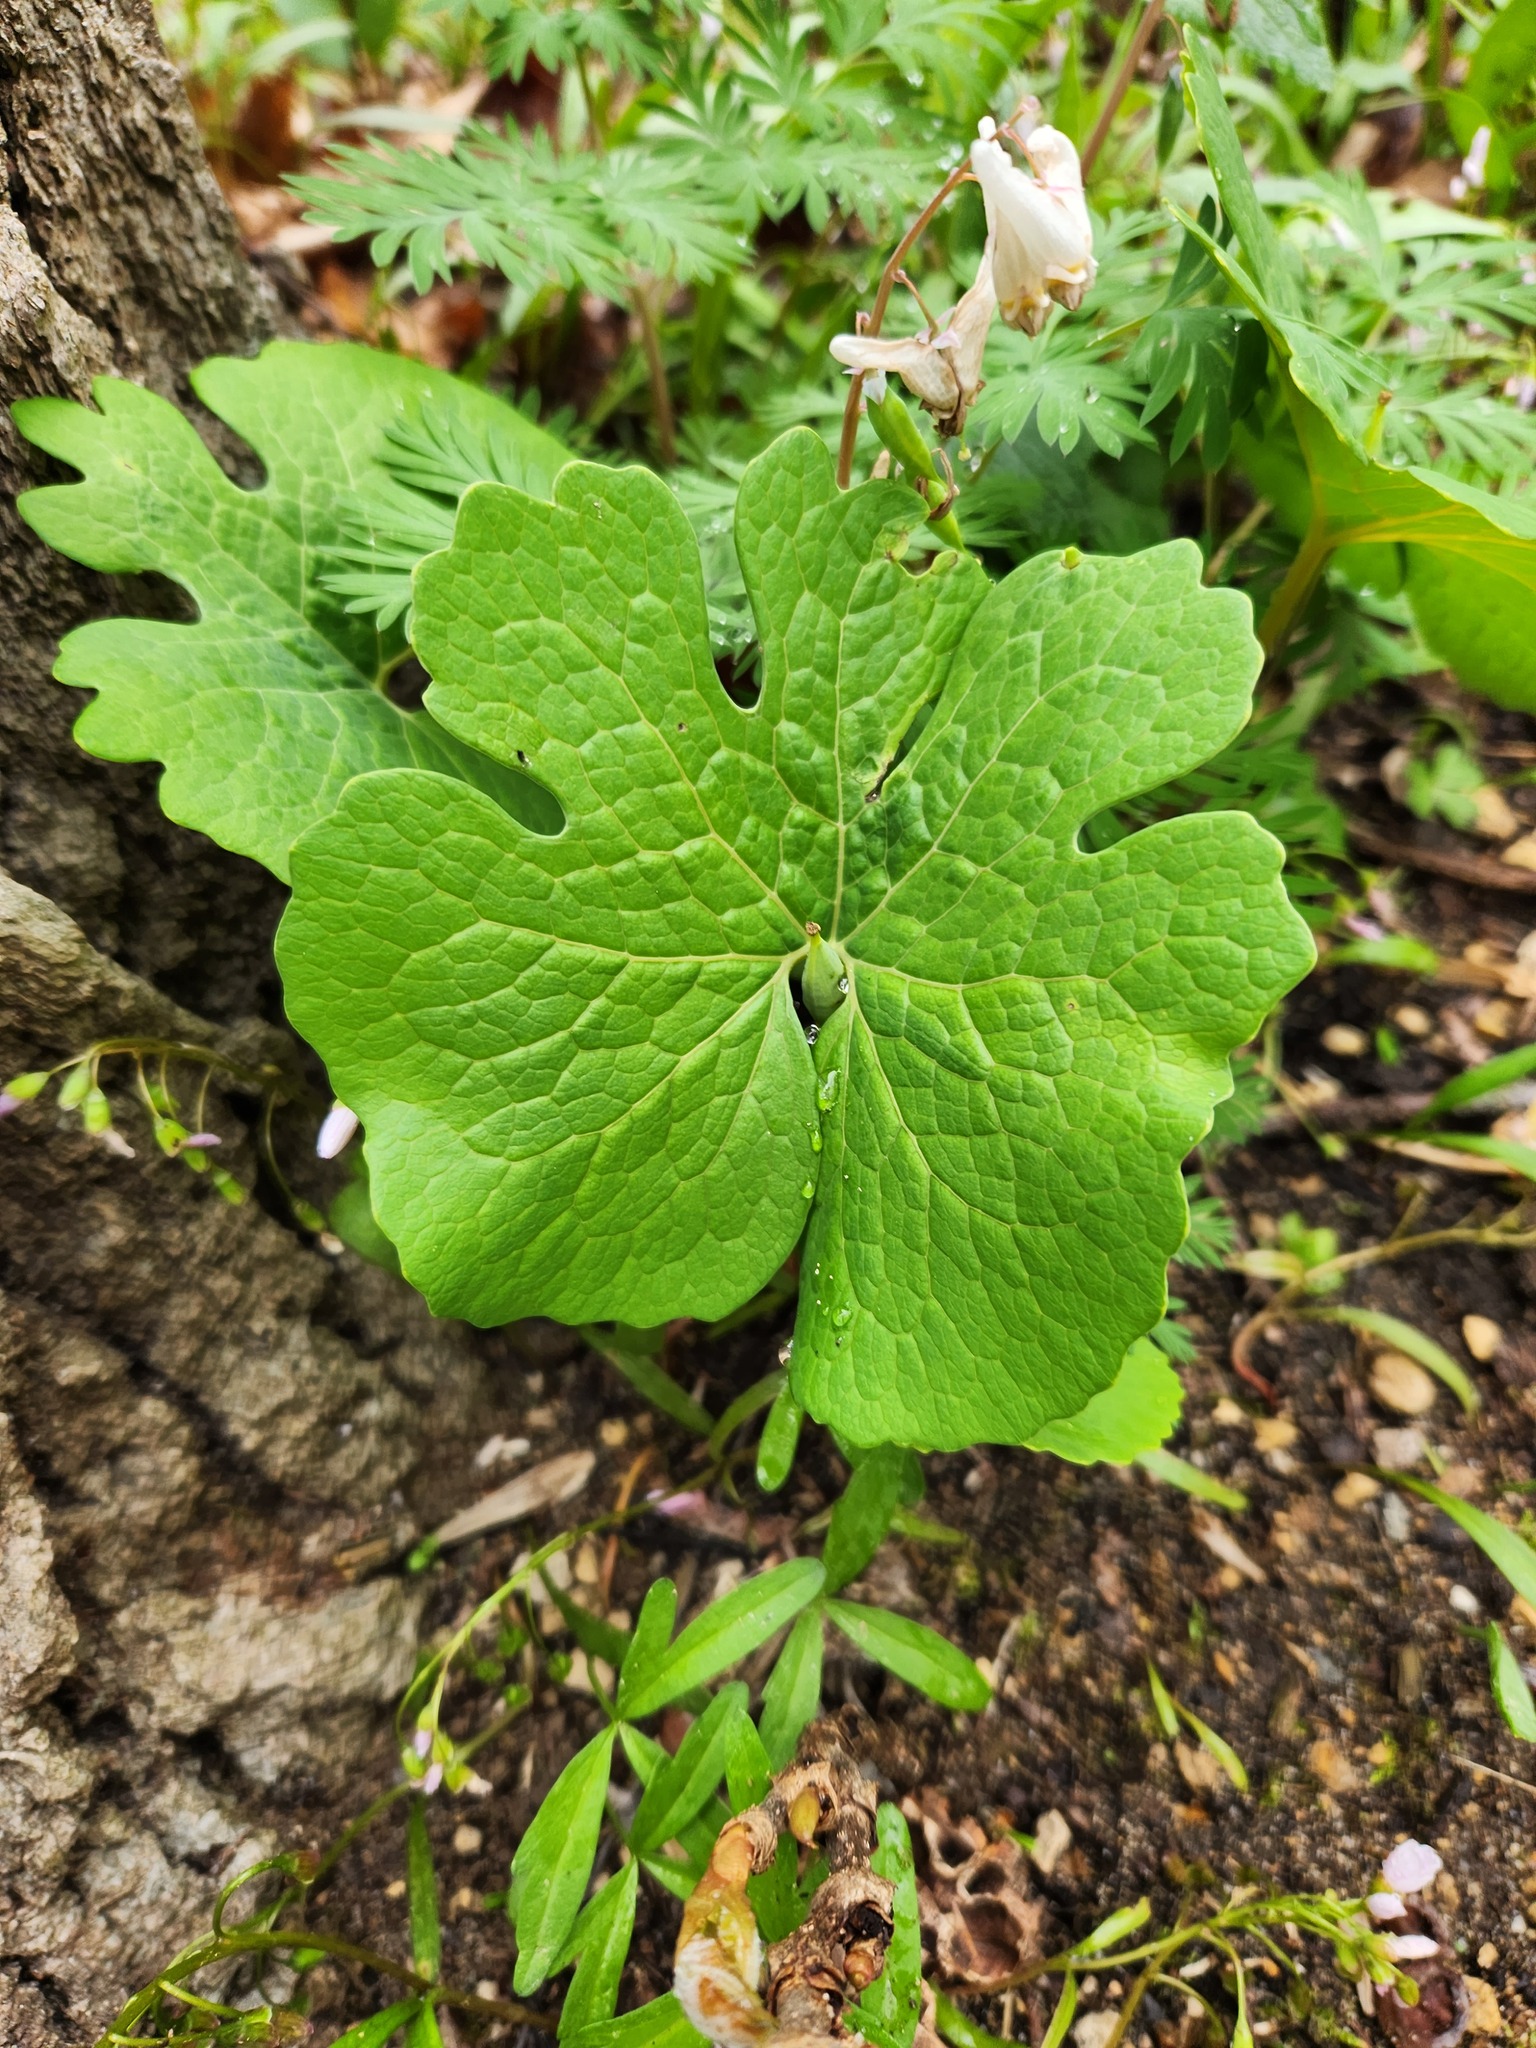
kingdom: Plantae
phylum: Tracheophyta
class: Magnoliopsida
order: Ranunculales
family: Papaveraceae
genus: Sanguinaria
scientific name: Sanguinaria canadensis
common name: Bloodroot
